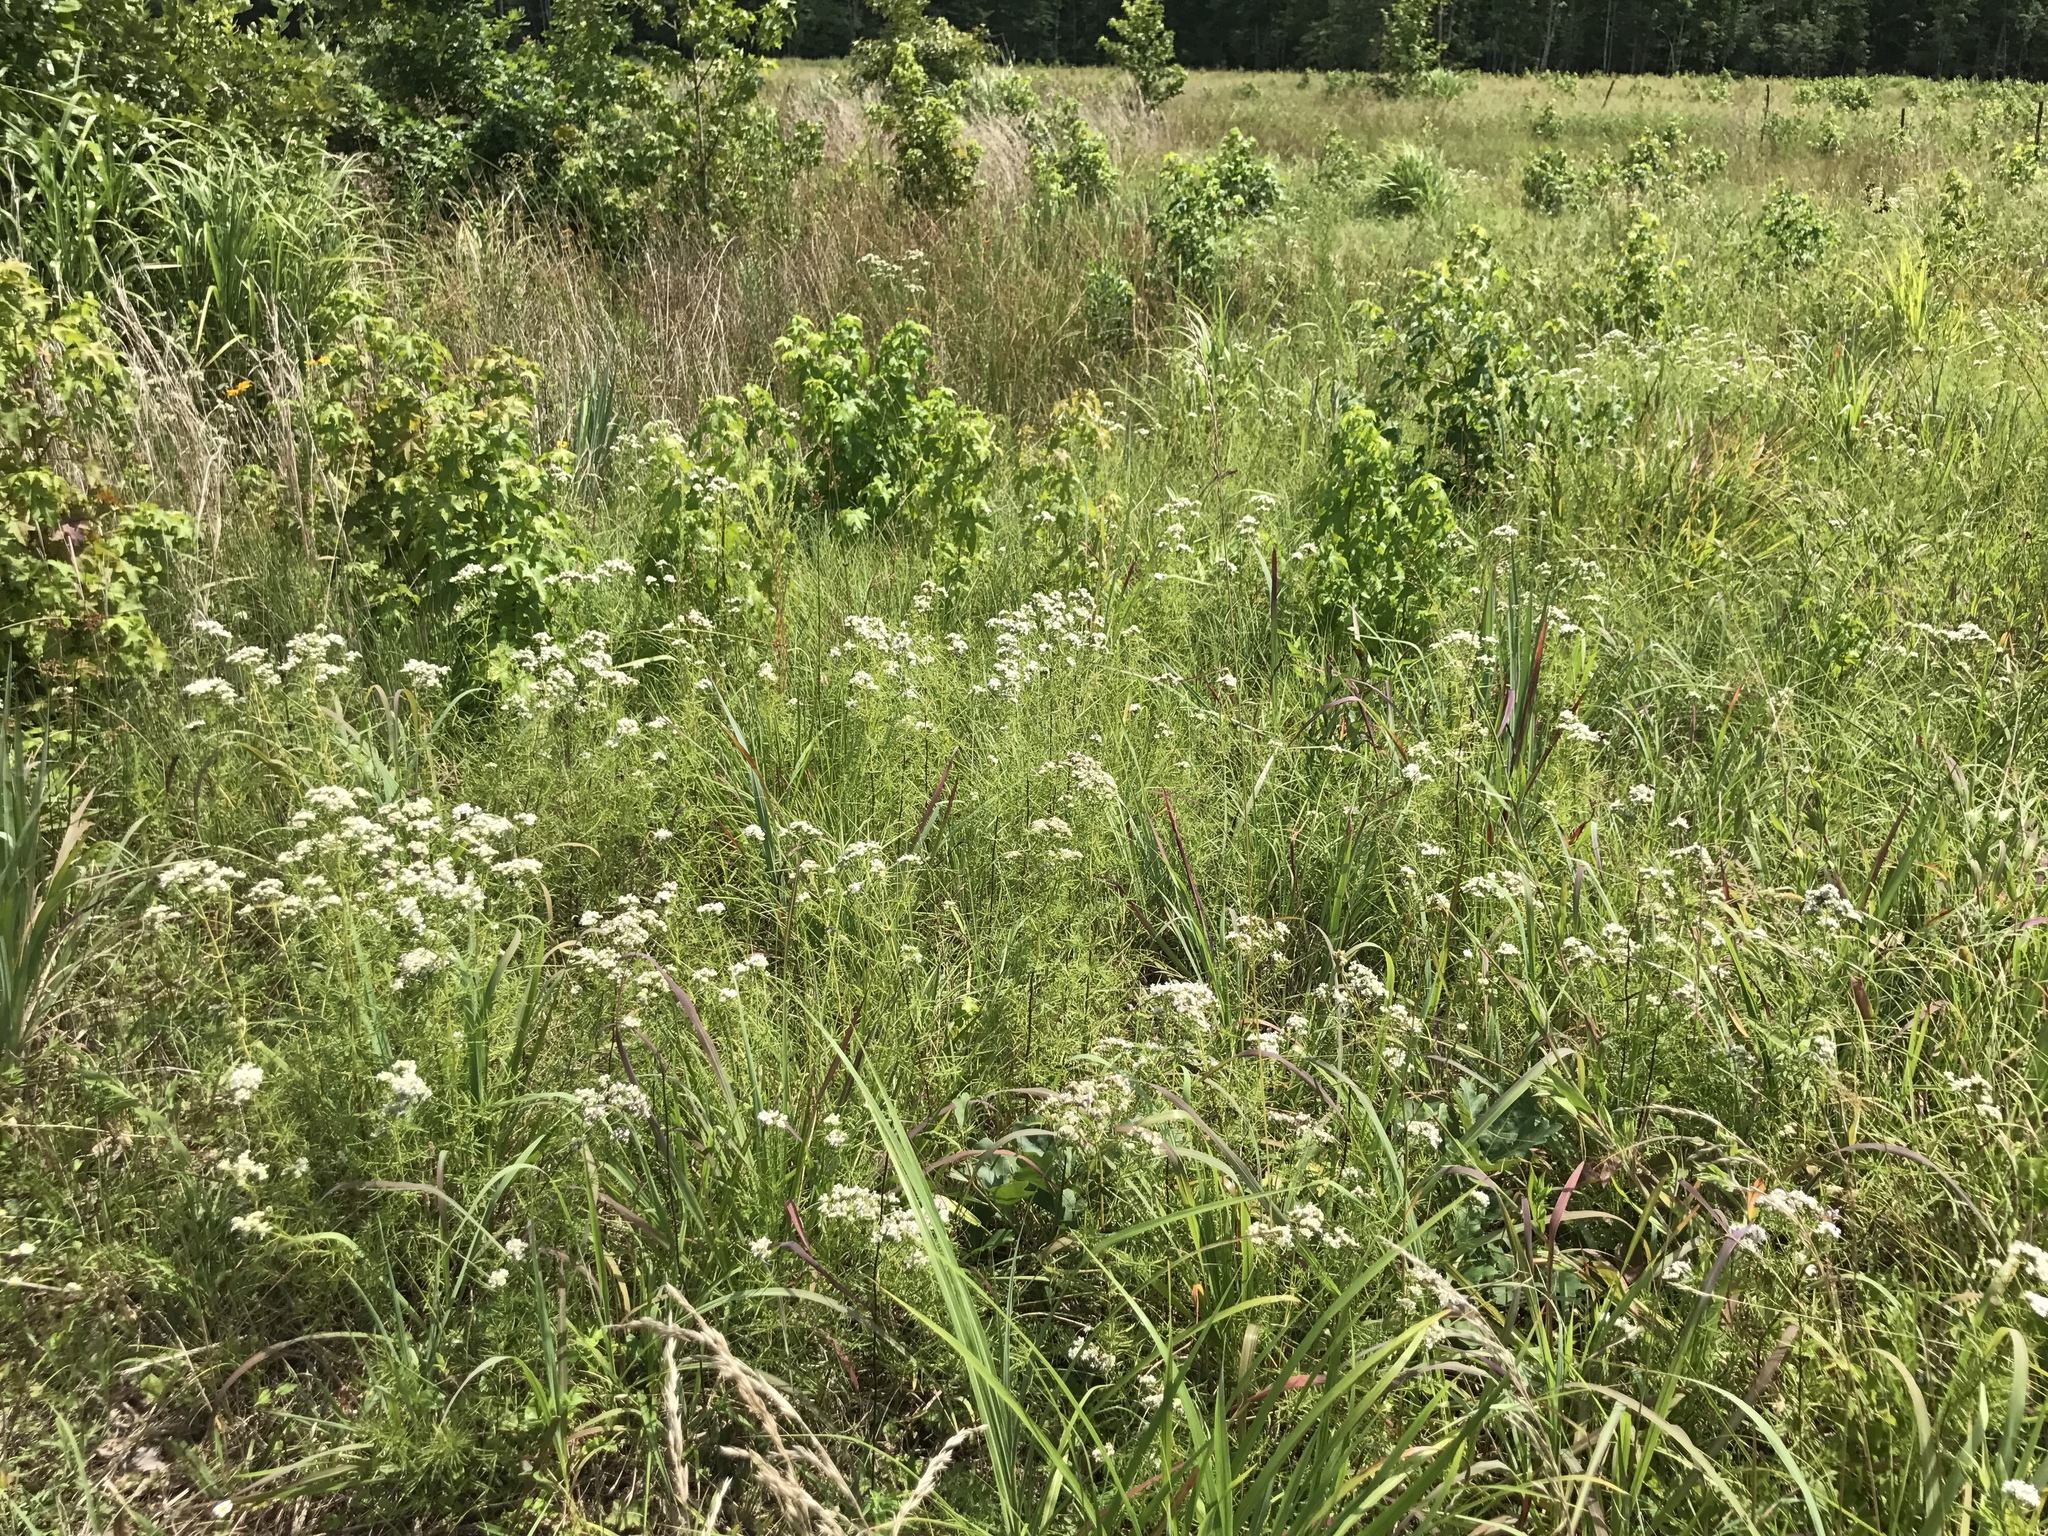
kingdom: Plantae
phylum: Tracheophyta
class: Magnoliopsida
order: Lamiales
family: Lamiaceae
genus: Pycnanthemum
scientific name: Pycnanthemum tenuifolium
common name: Narrow-leaf mountain-mint
